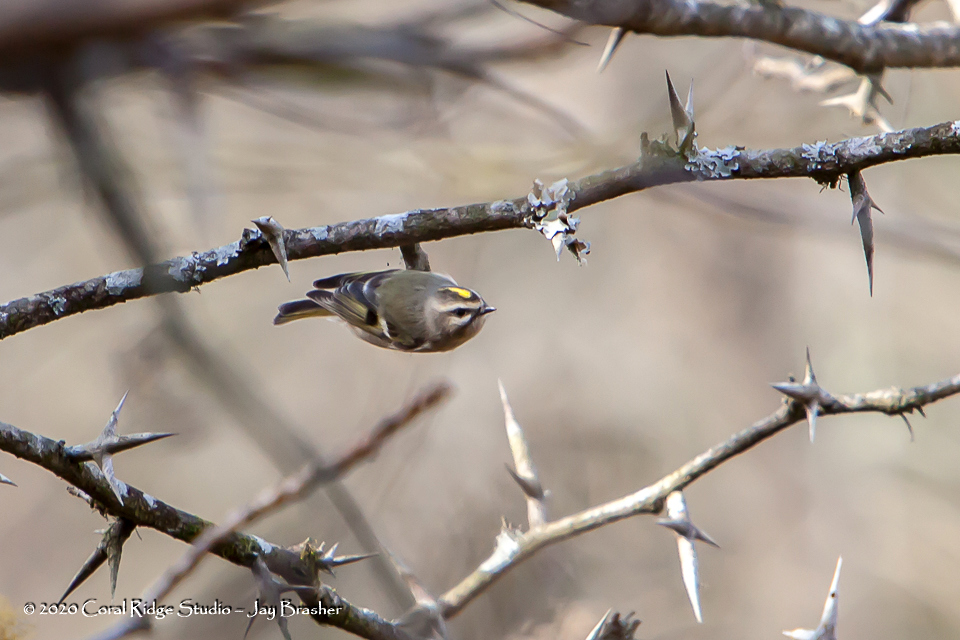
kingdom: Animalia
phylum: Chordata
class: Aves
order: Passeriformes
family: Regulidae
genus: Regulus
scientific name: Regulus satrapa
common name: Golden-crowned kinglet
